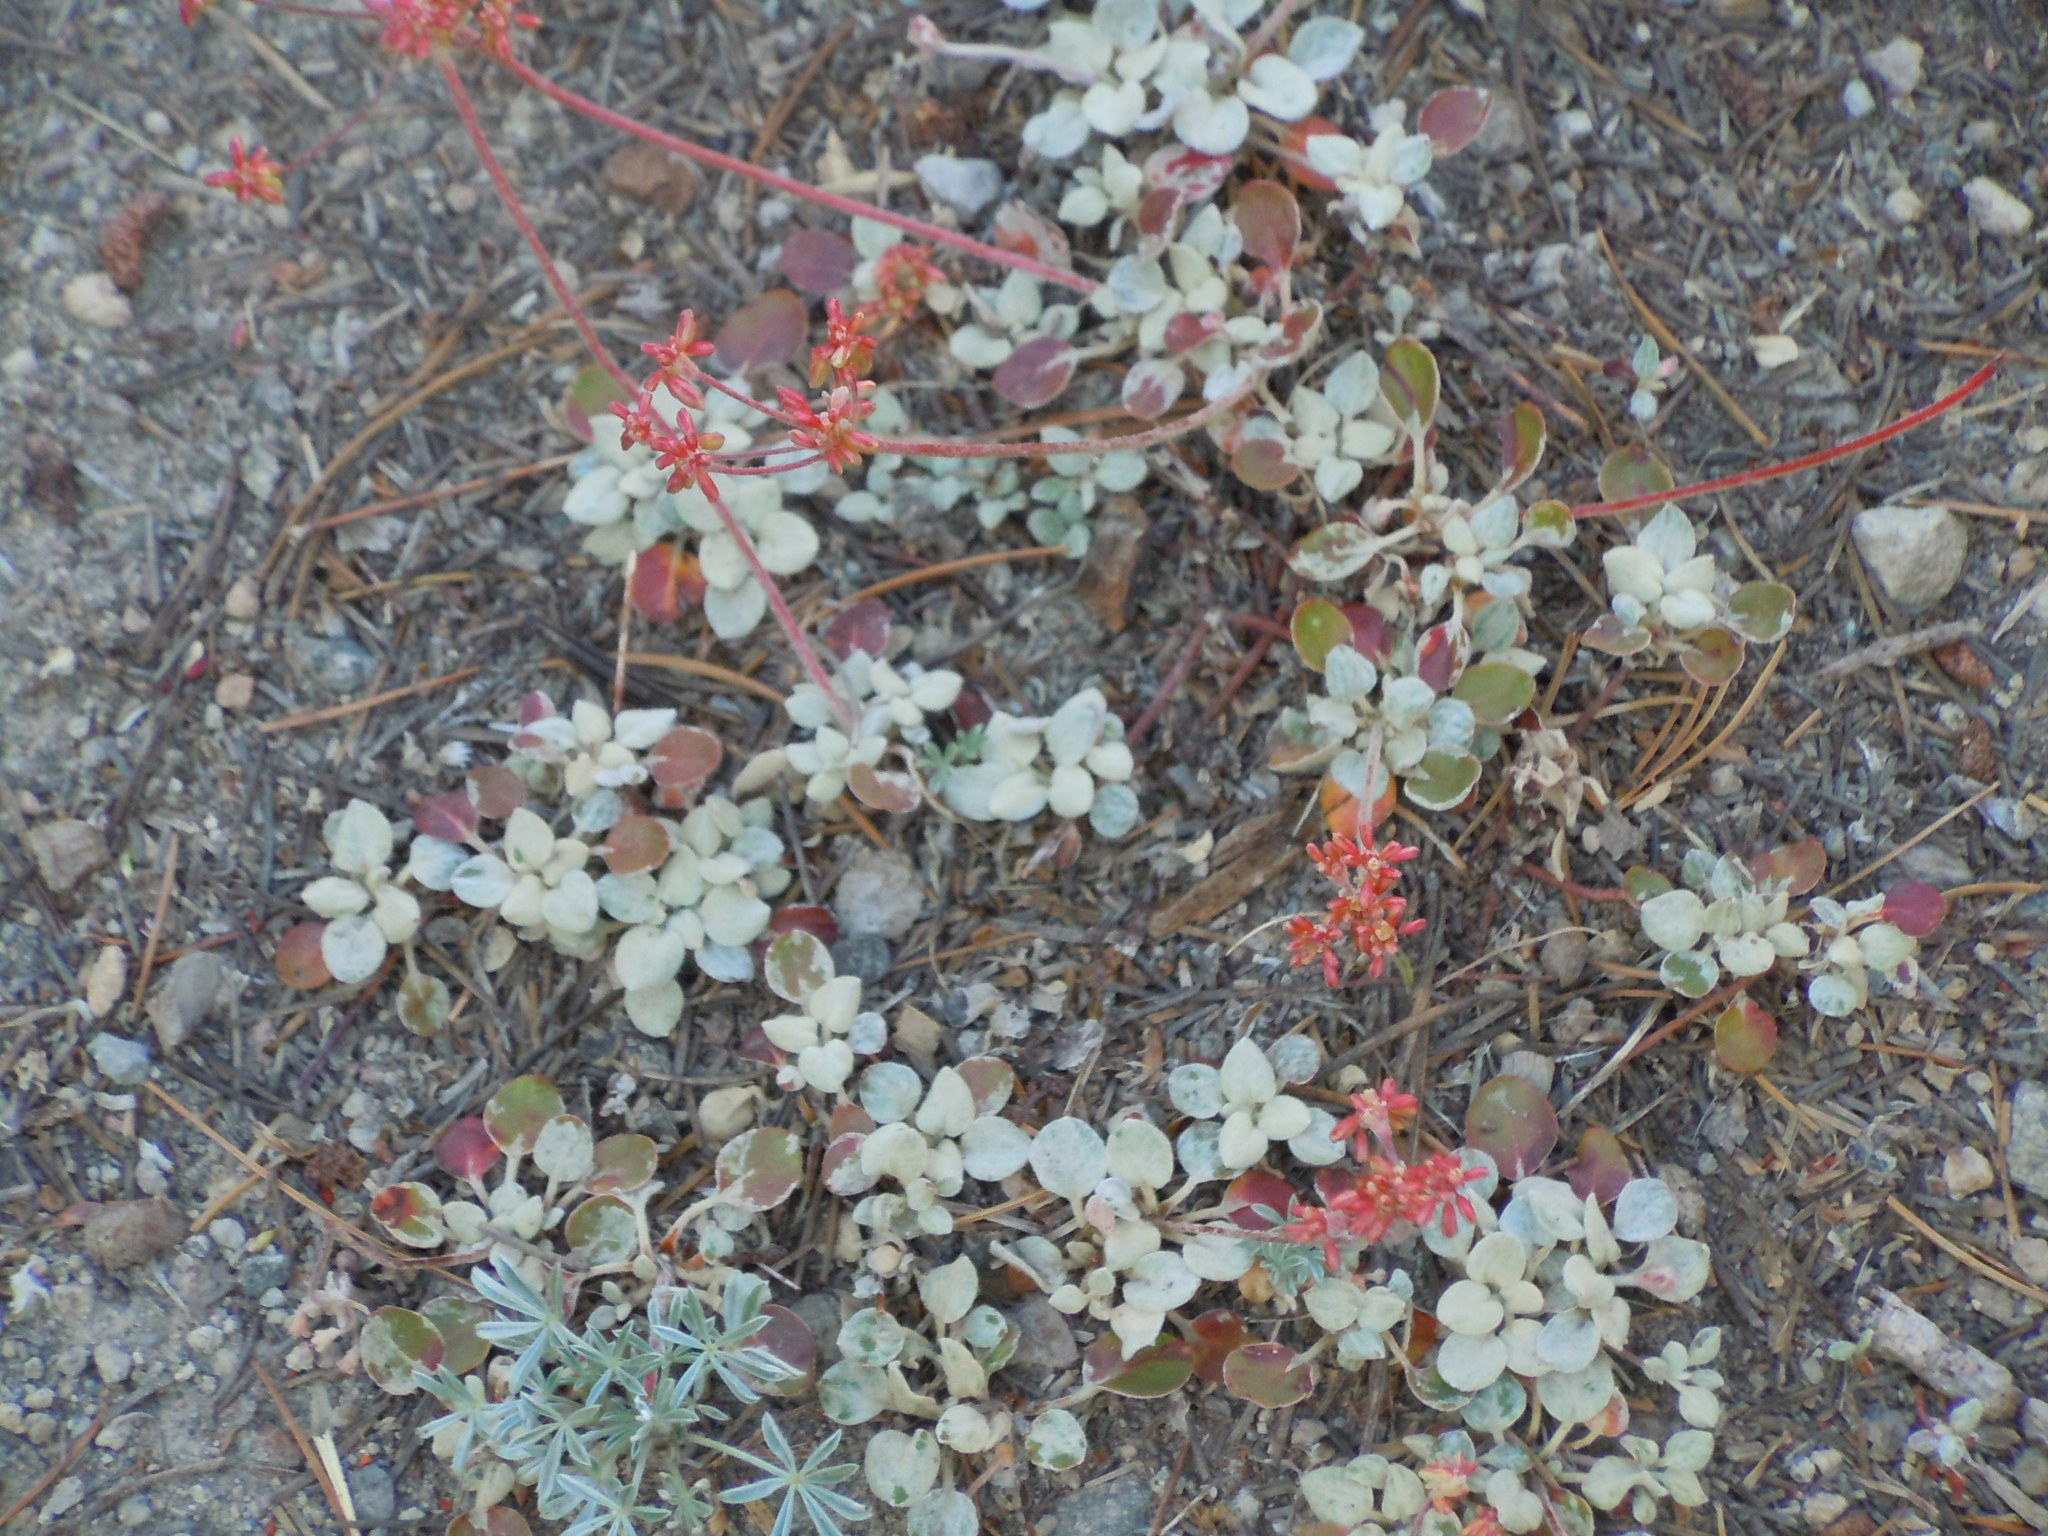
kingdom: Plantae
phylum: Tracheophyta
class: Magnoliopsida
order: Caryophyllales
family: Polygonaceae
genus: Eriogonum
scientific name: Eriogonum marifolium
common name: Marum-leaf wild buckwheat
